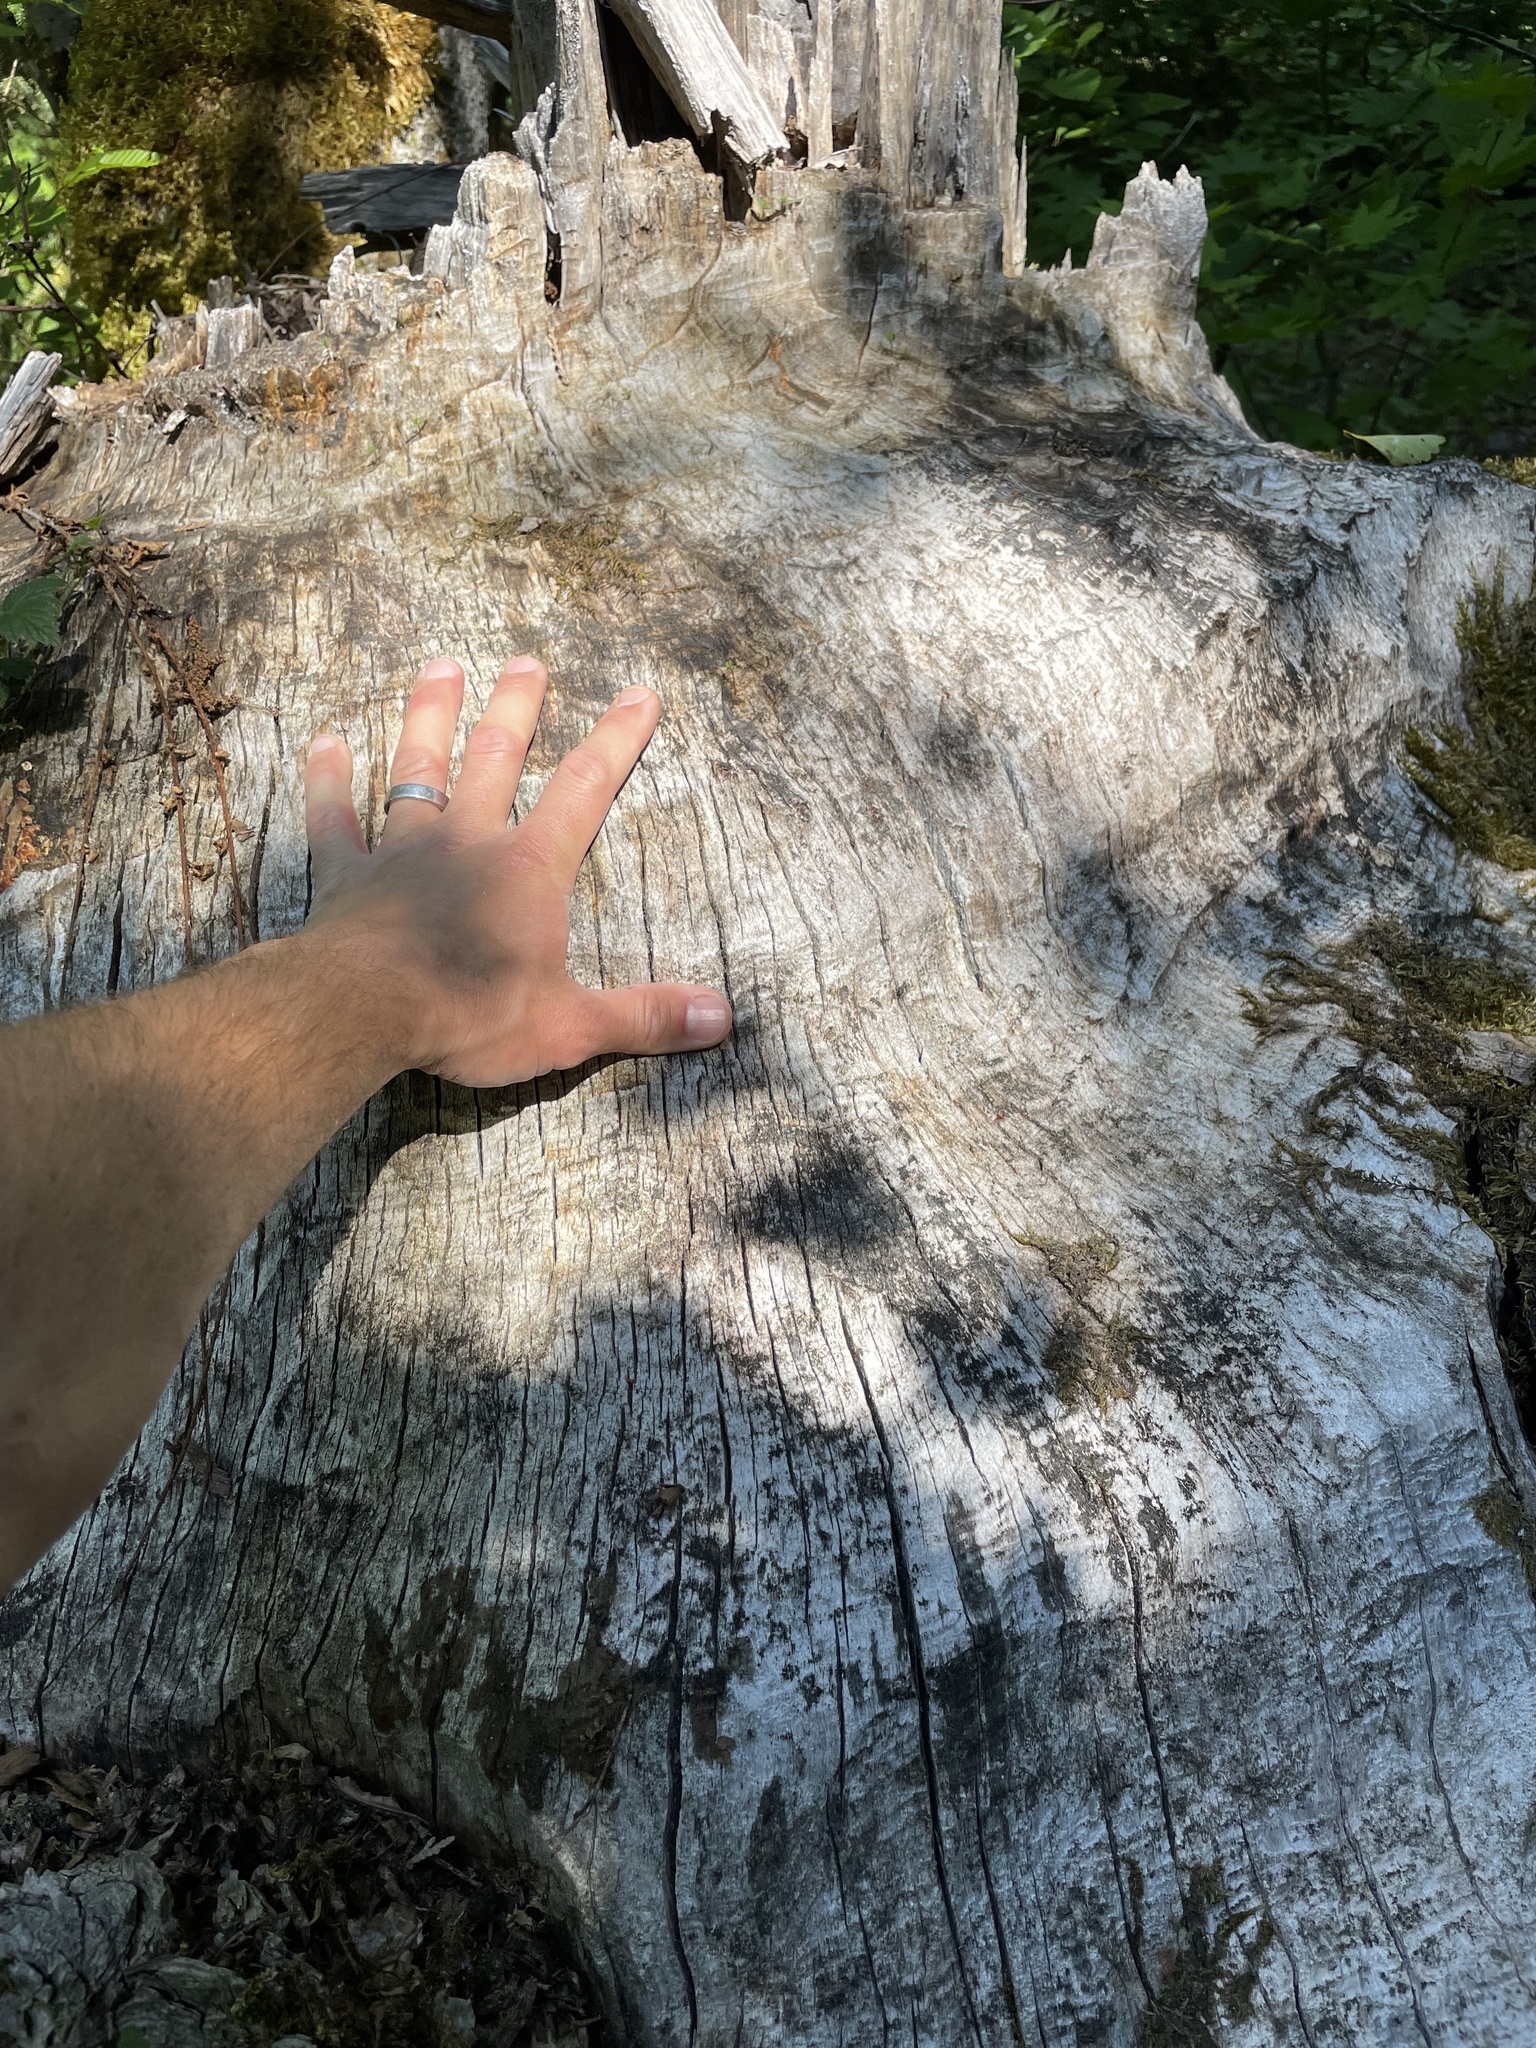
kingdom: Animalia
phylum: Chordata
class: Mammalia
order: Rodentia
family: Castoridae
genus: Castor
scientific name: Castor canadensis
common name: American beaver
